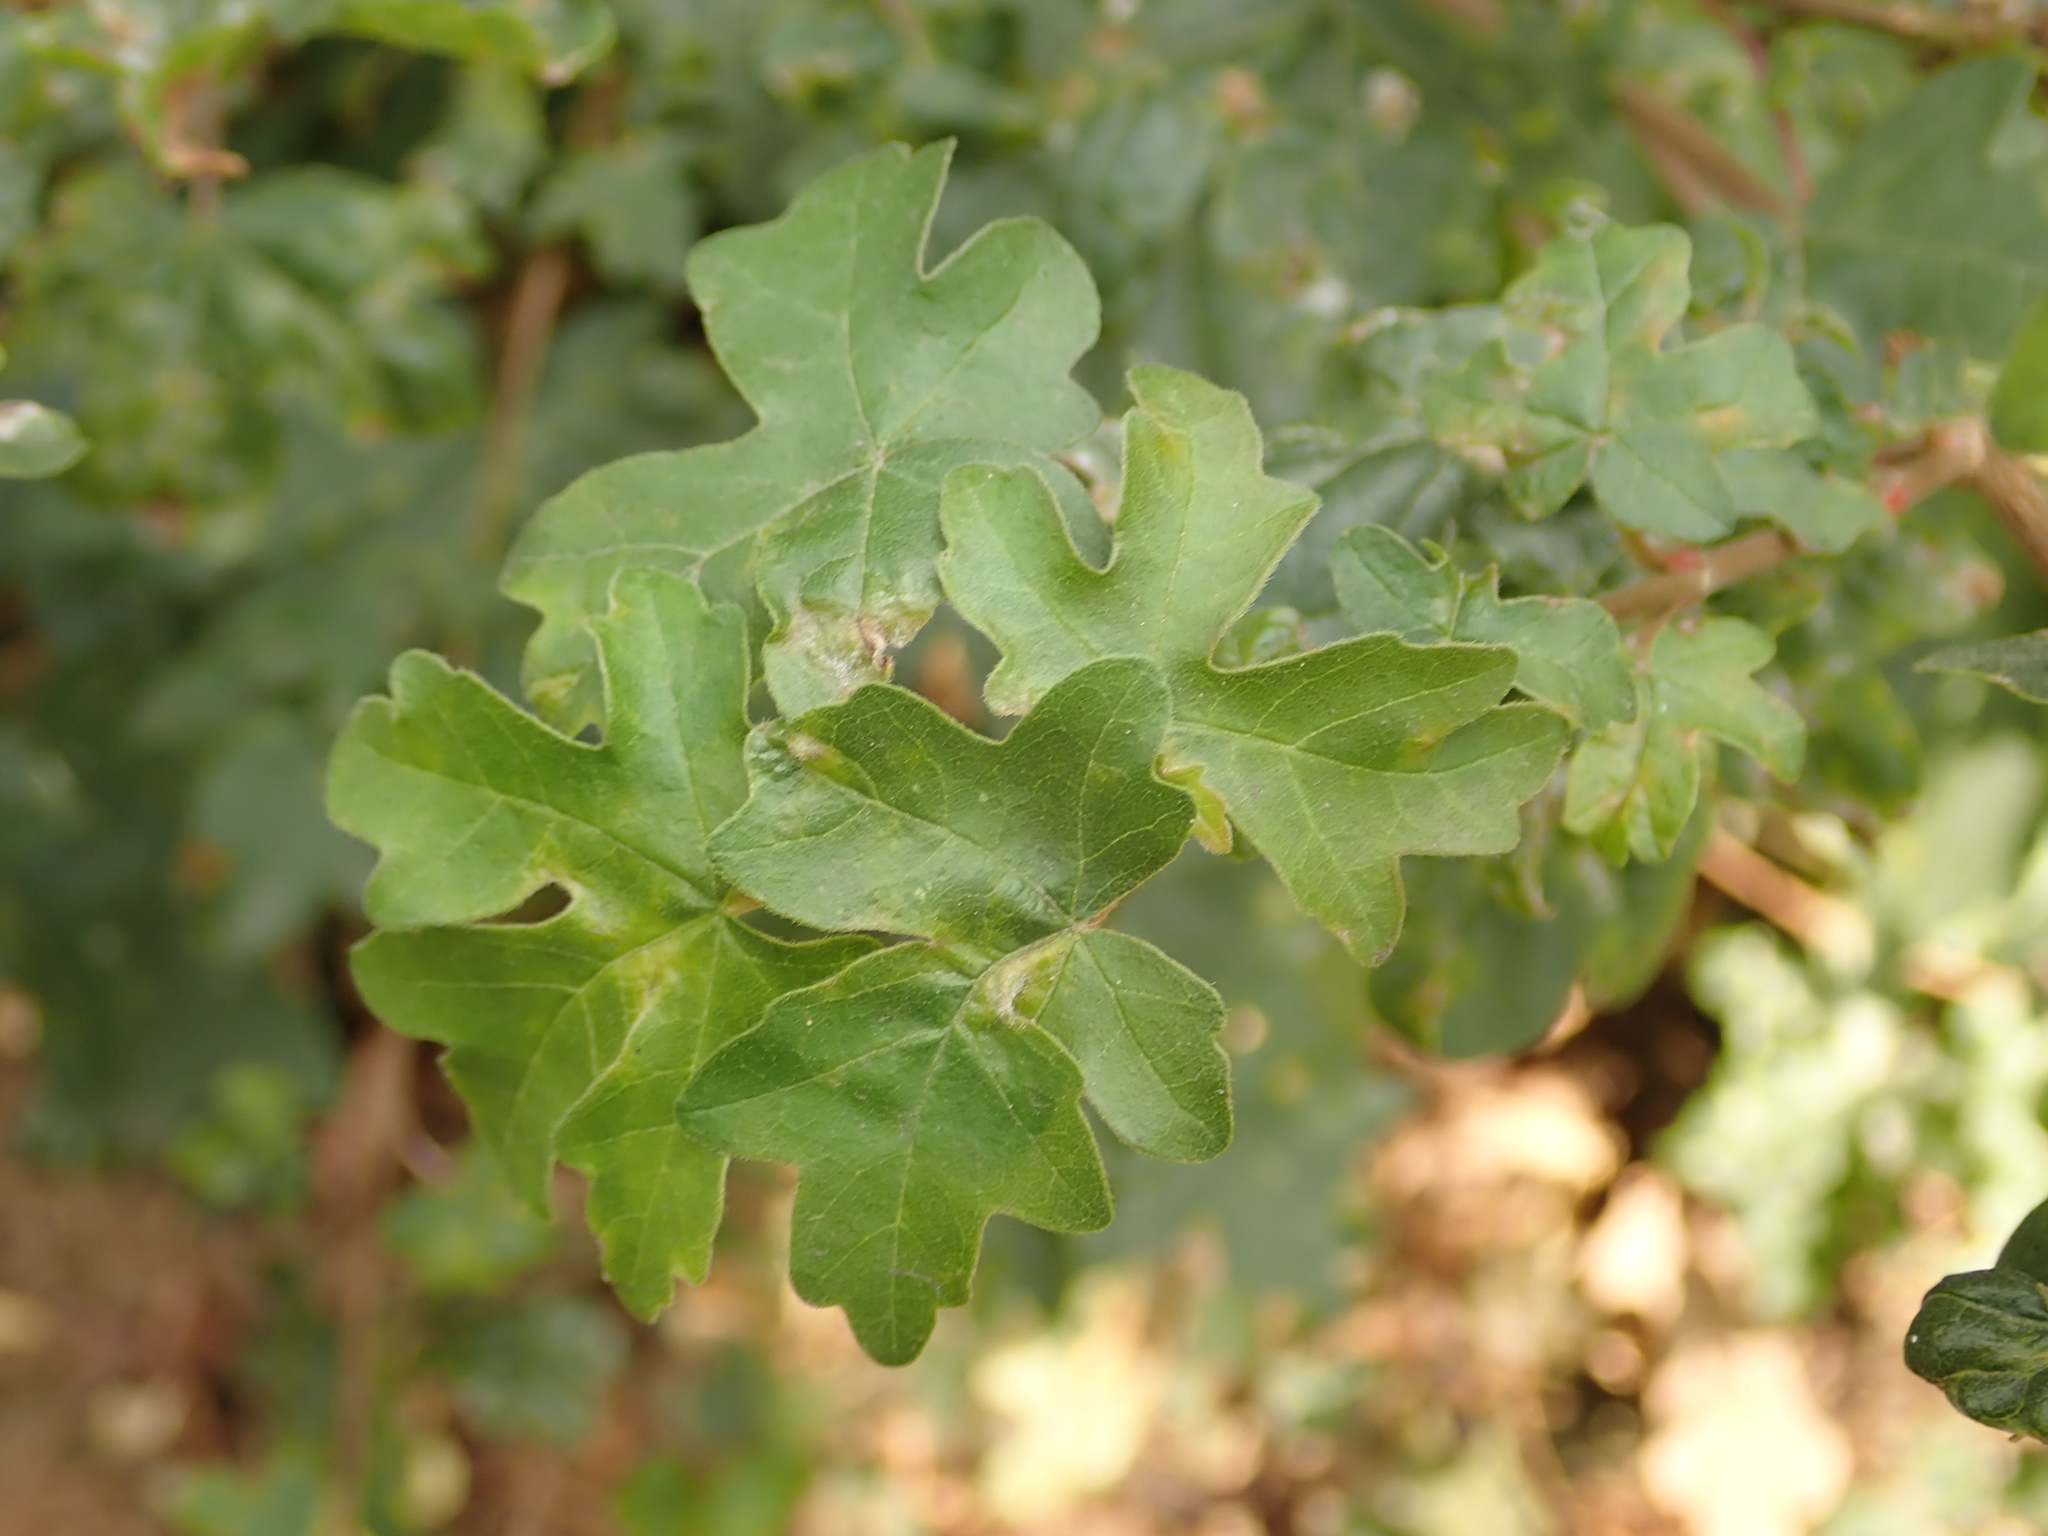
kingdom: Plantae
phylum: Tracheophyta
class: Magnoliopsida
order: Sapindales
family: Sapindaceae
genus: Acer
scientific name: Acer campestre
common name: Field maple
